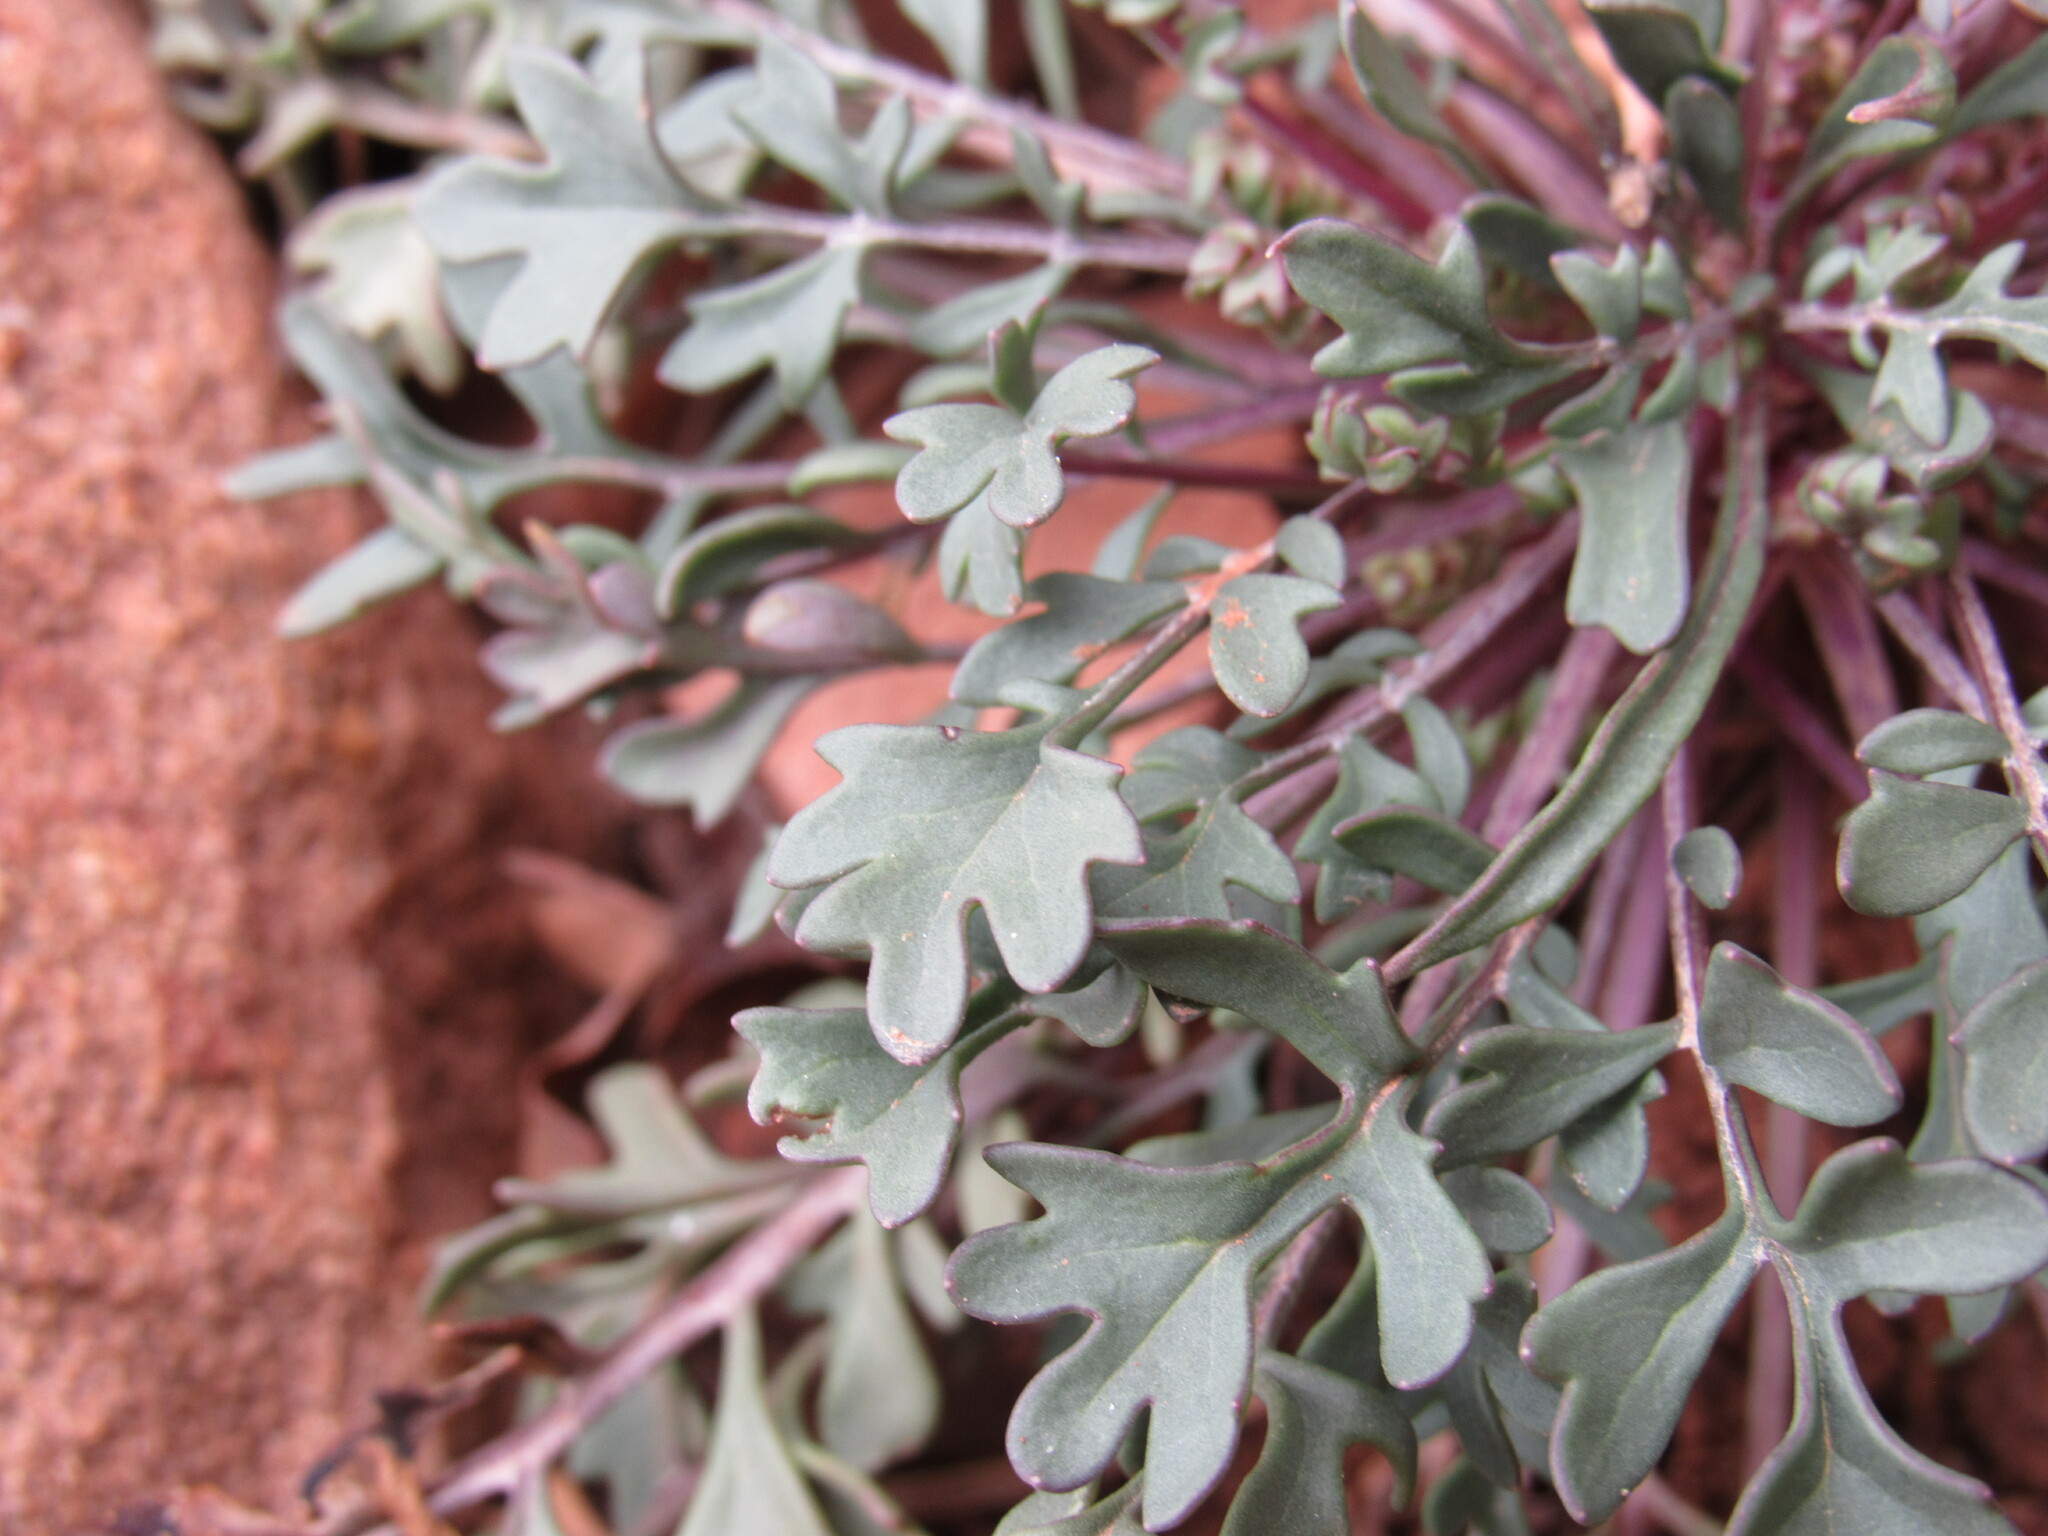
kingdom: Plantae
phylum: Tracheophyta
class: Magnoliopsida
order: Asterales
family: Asteraceae
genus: Packera
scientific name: Packera multilobata
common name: Lobe-leaf groundsel
